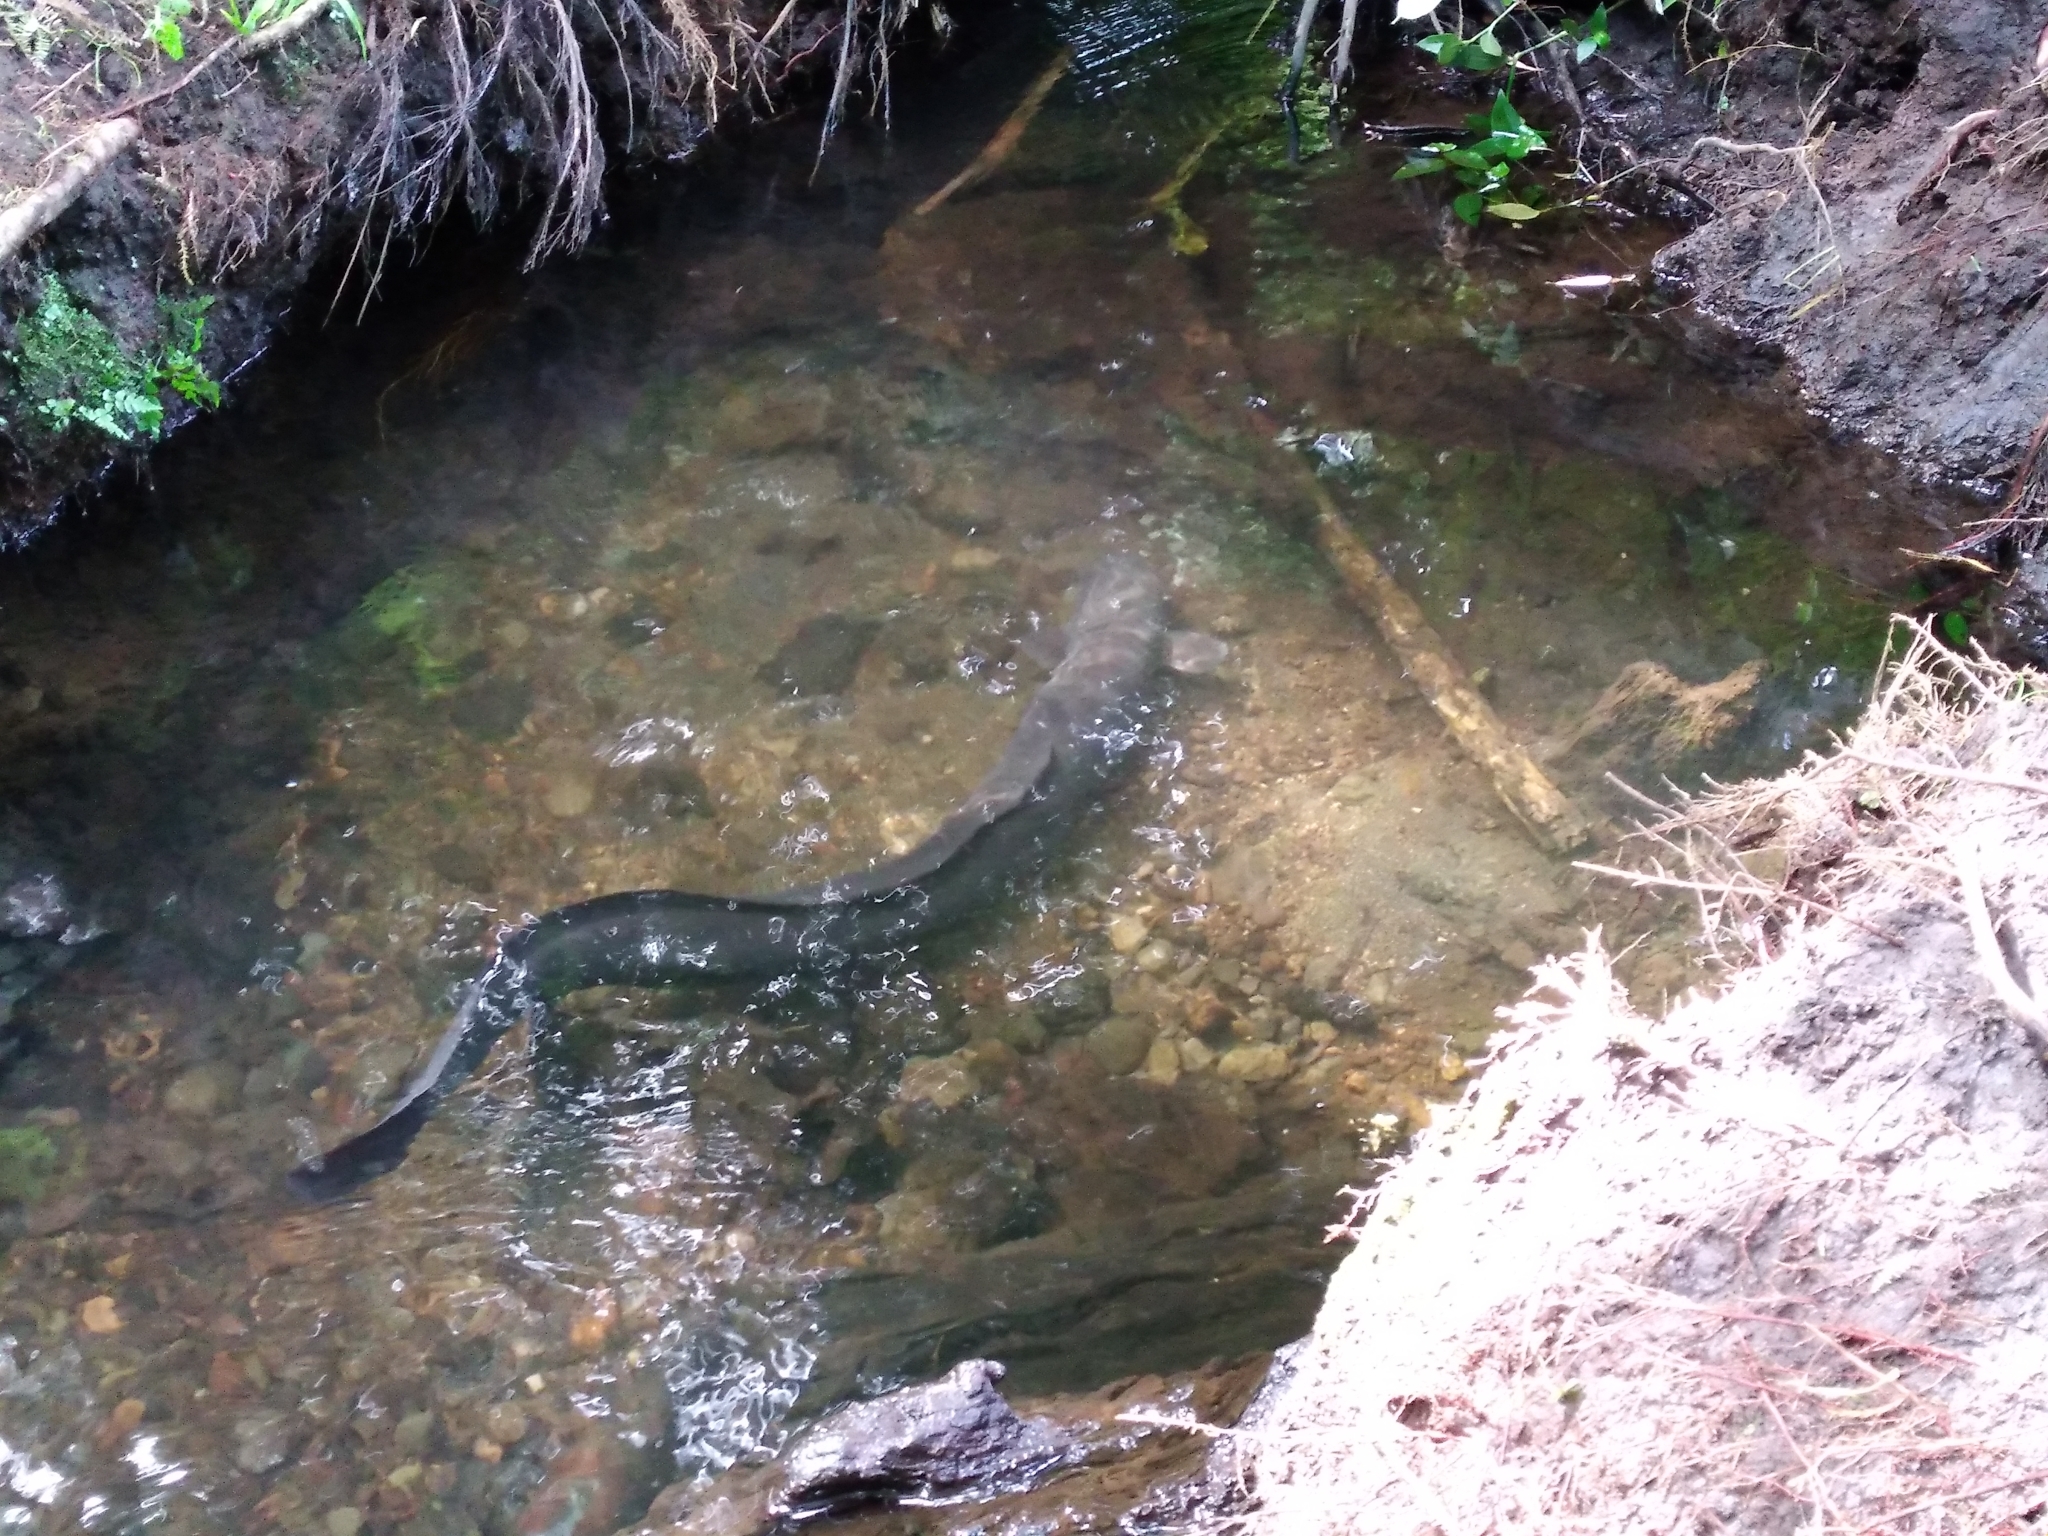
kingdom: Animalia
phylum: Chordata
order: Anguilliformes
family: Anguillidae
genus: Anguilla
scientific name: Anguilla dieffenbachii
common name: New zealand longfin eel
